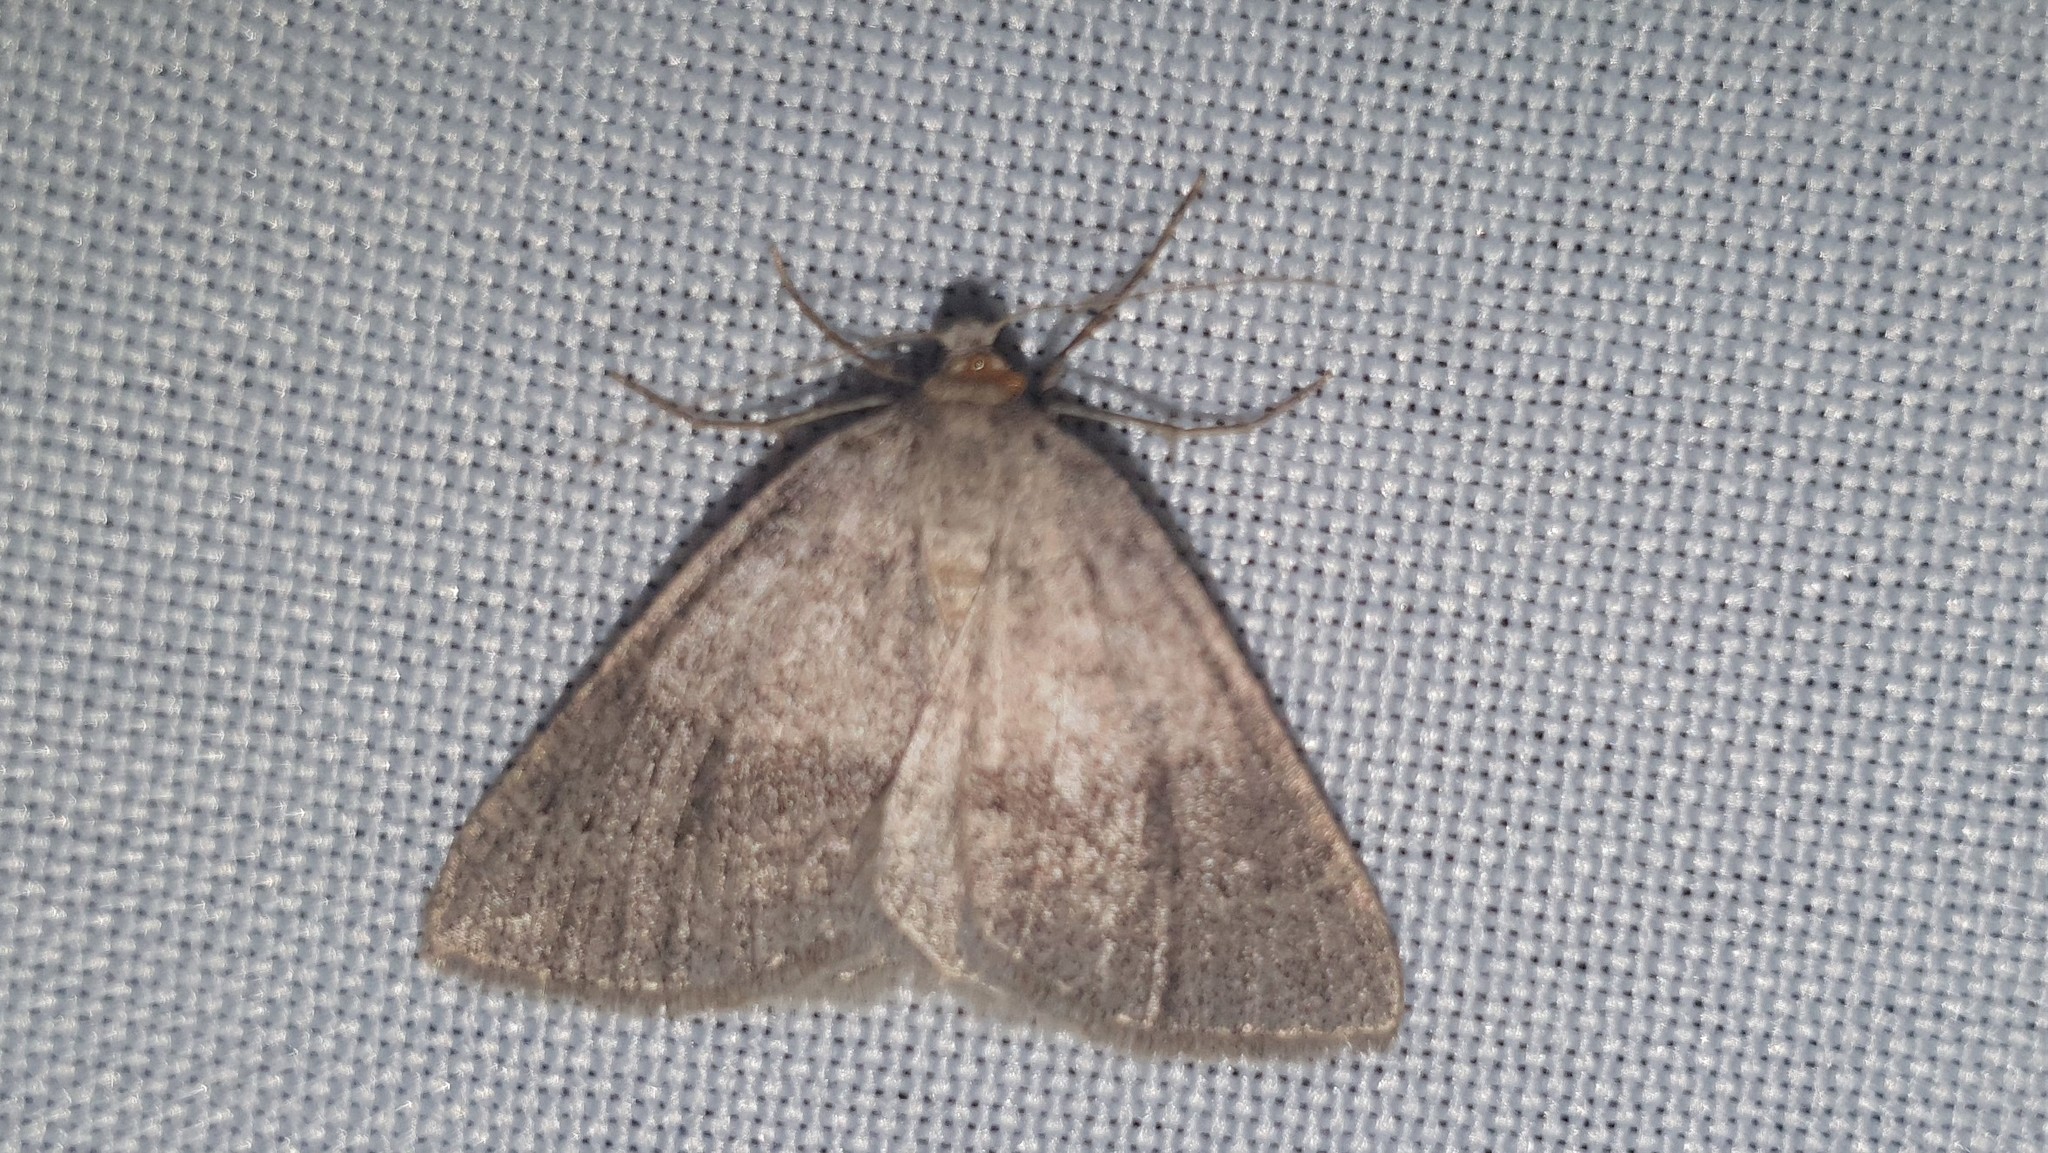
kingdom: Animalia
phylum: Arthropoda
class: Insecta
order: Lepidoptera
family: Geometridae
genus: Pachycnemia
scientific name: Pachycnemia tibiaria
